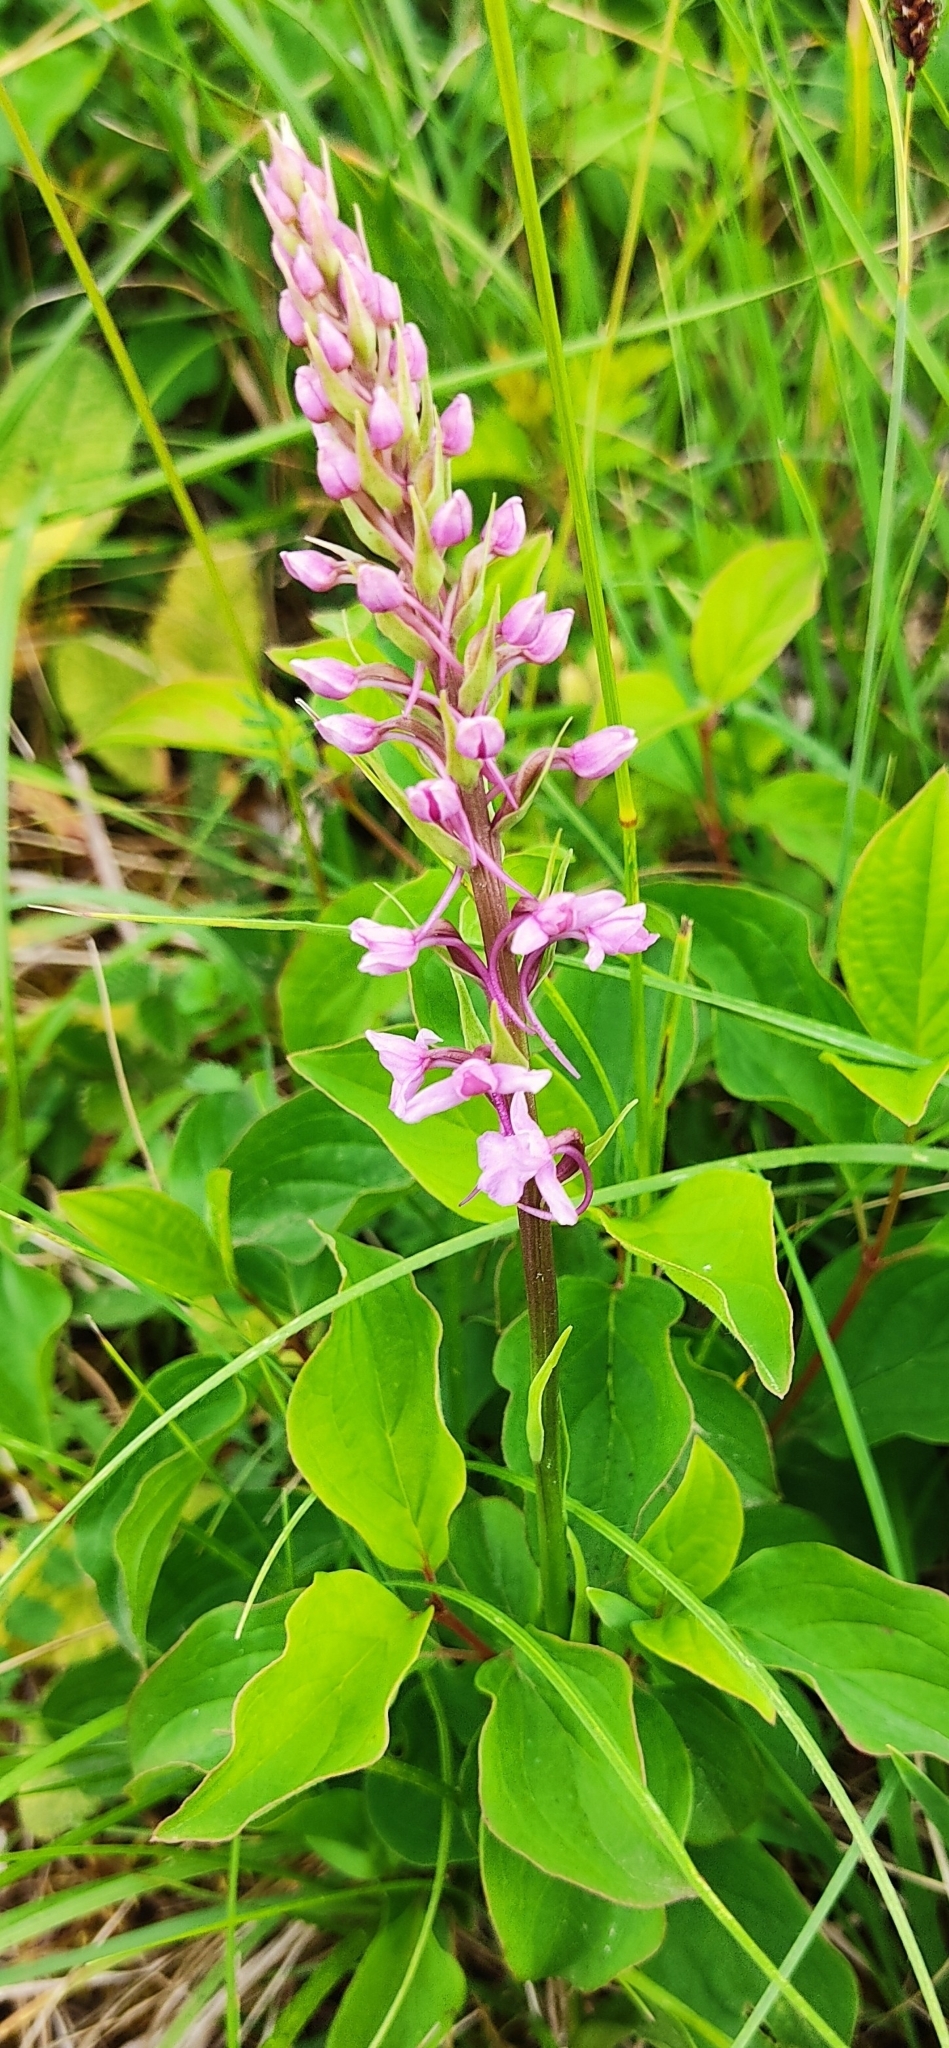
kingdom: Plantae
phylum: Tracheophyta
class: Liliopsida
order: Asparagales
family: Orchidaceae
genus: Gymnadenia
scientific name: Gymnadenia conopsea
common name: Fragrant orchid
